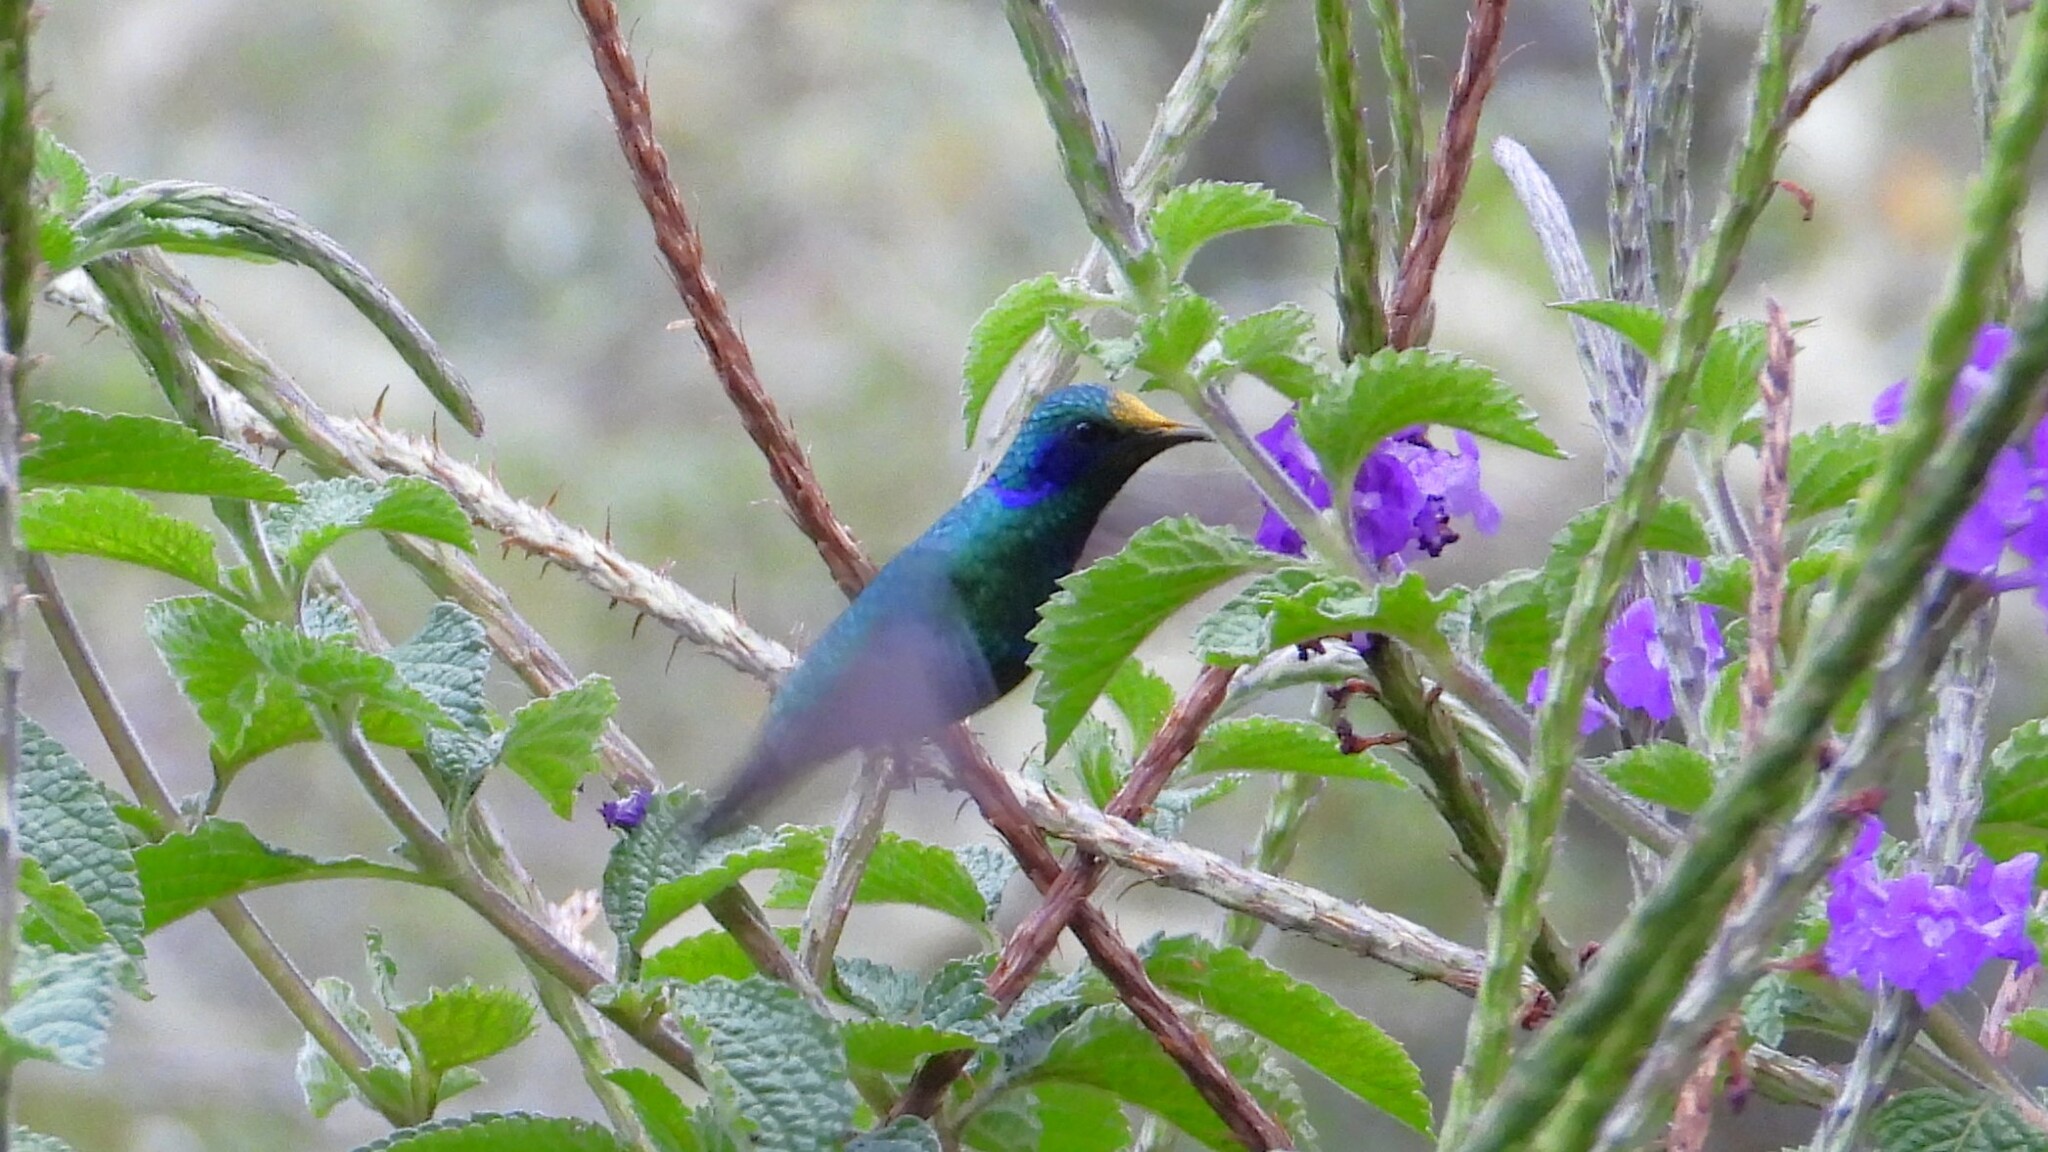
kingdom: Animalia
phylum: Chordata
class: Aves
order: Apodiformes
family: Trochilidae
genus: Colibri
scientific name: Colibri cyanotus
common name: Lesser violetear
